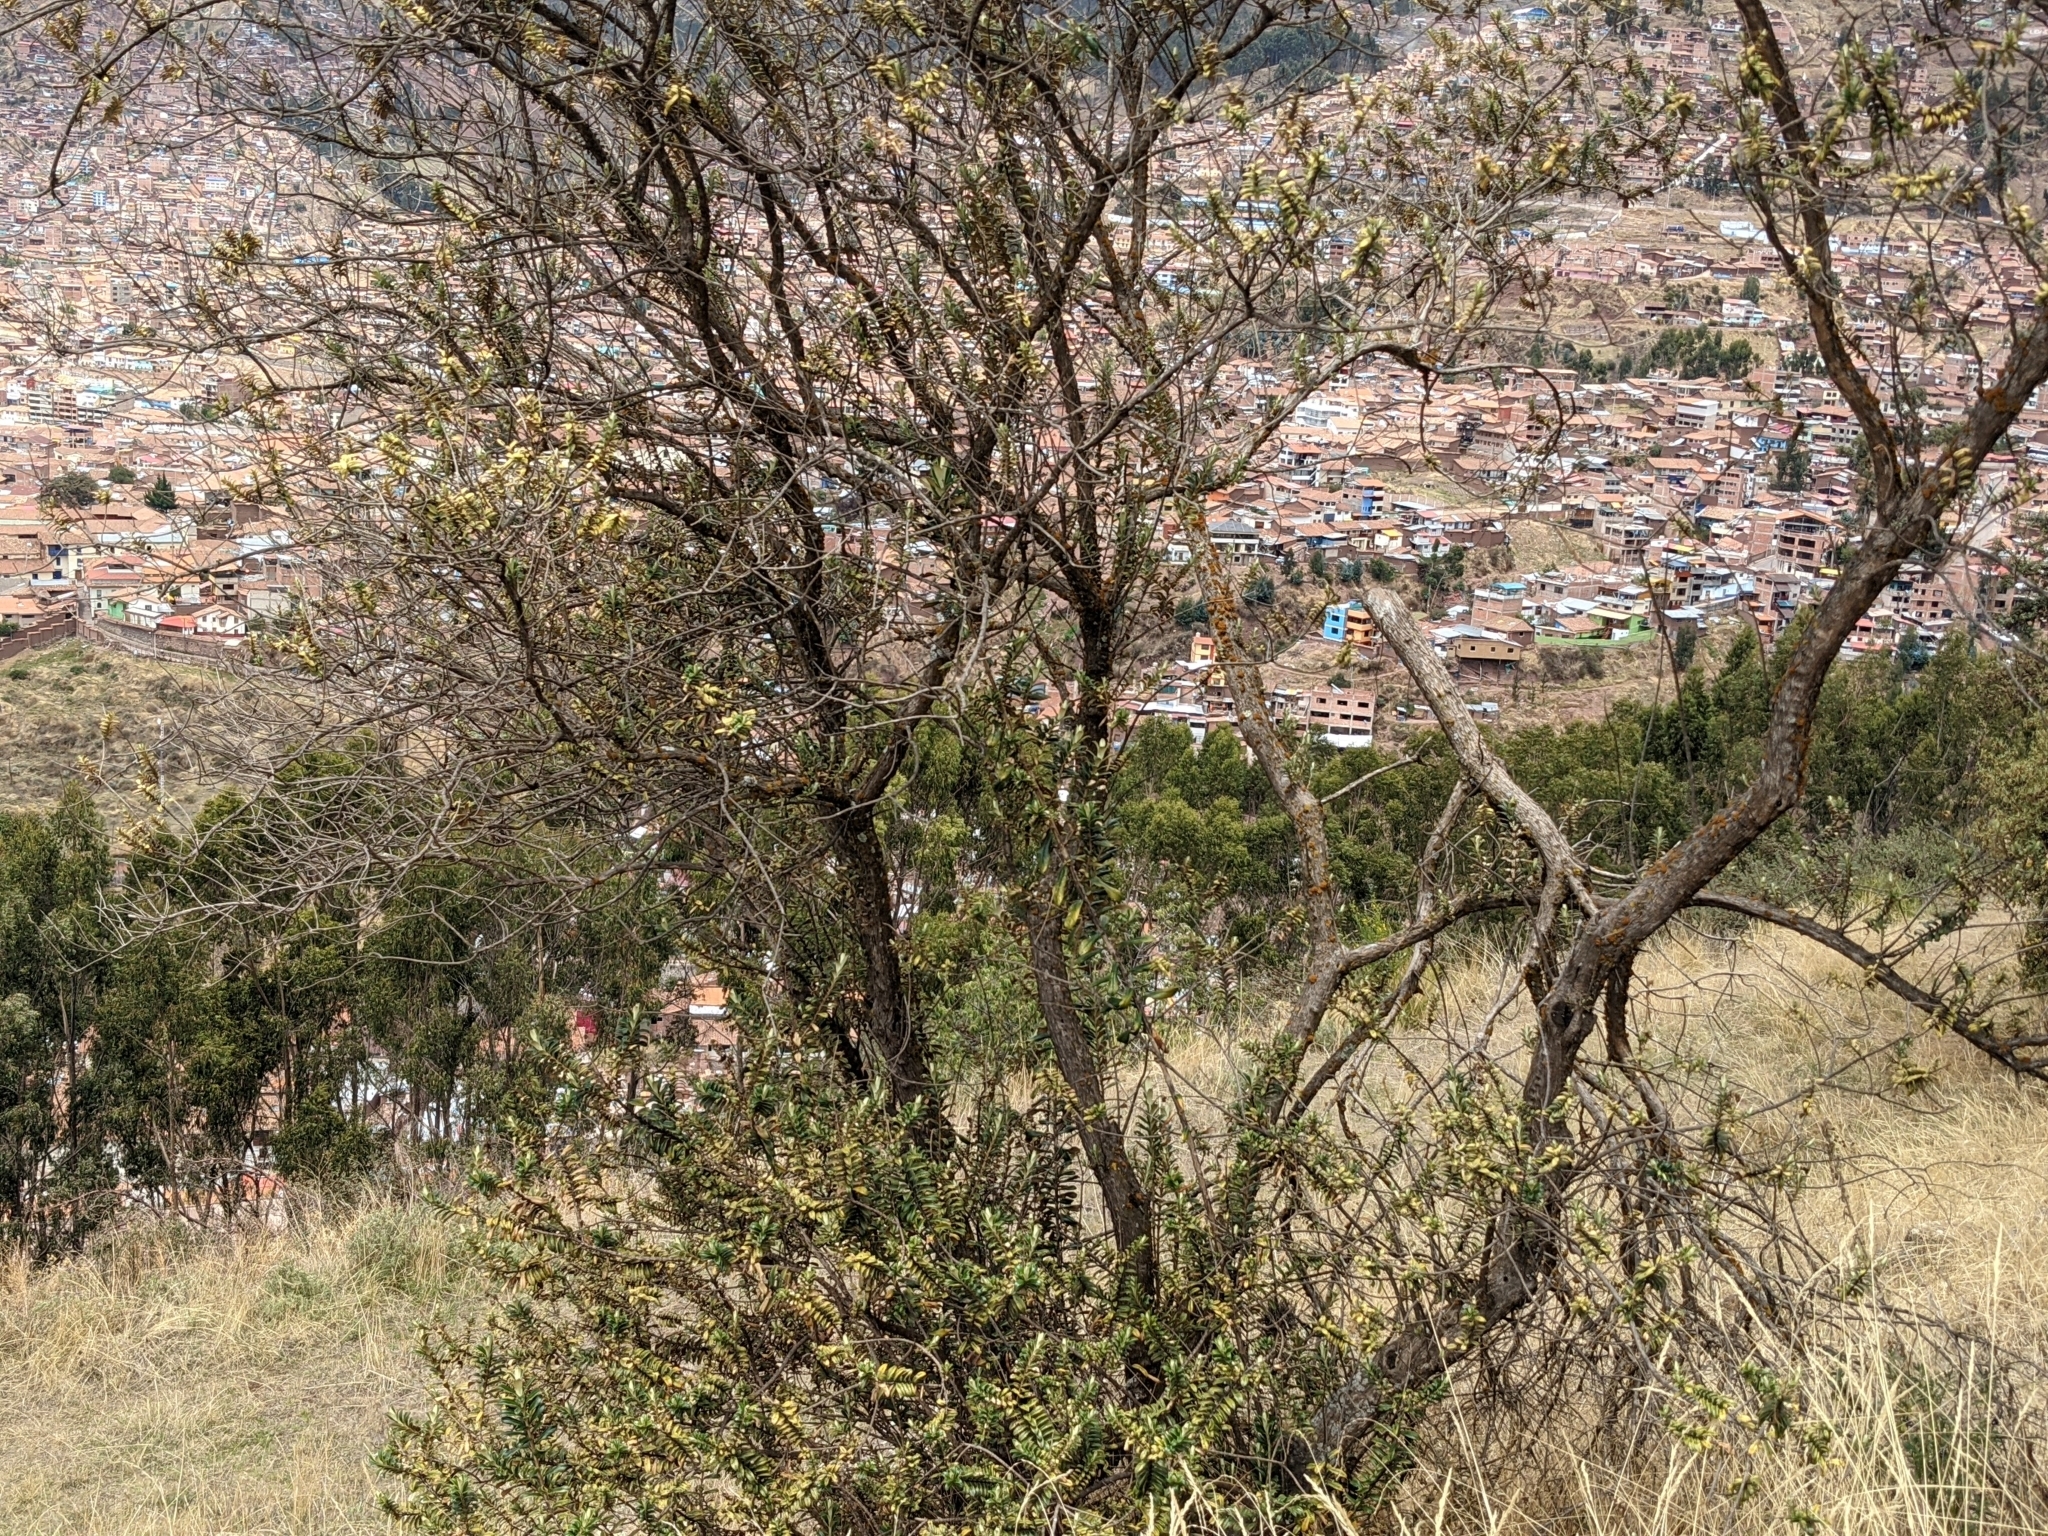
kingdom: Plantae
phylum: Tracheophyta
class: Magnoliopsida
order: Lamiales
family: Scrophulariaceae
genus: Buddleja
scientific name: Buddleja coriacea
